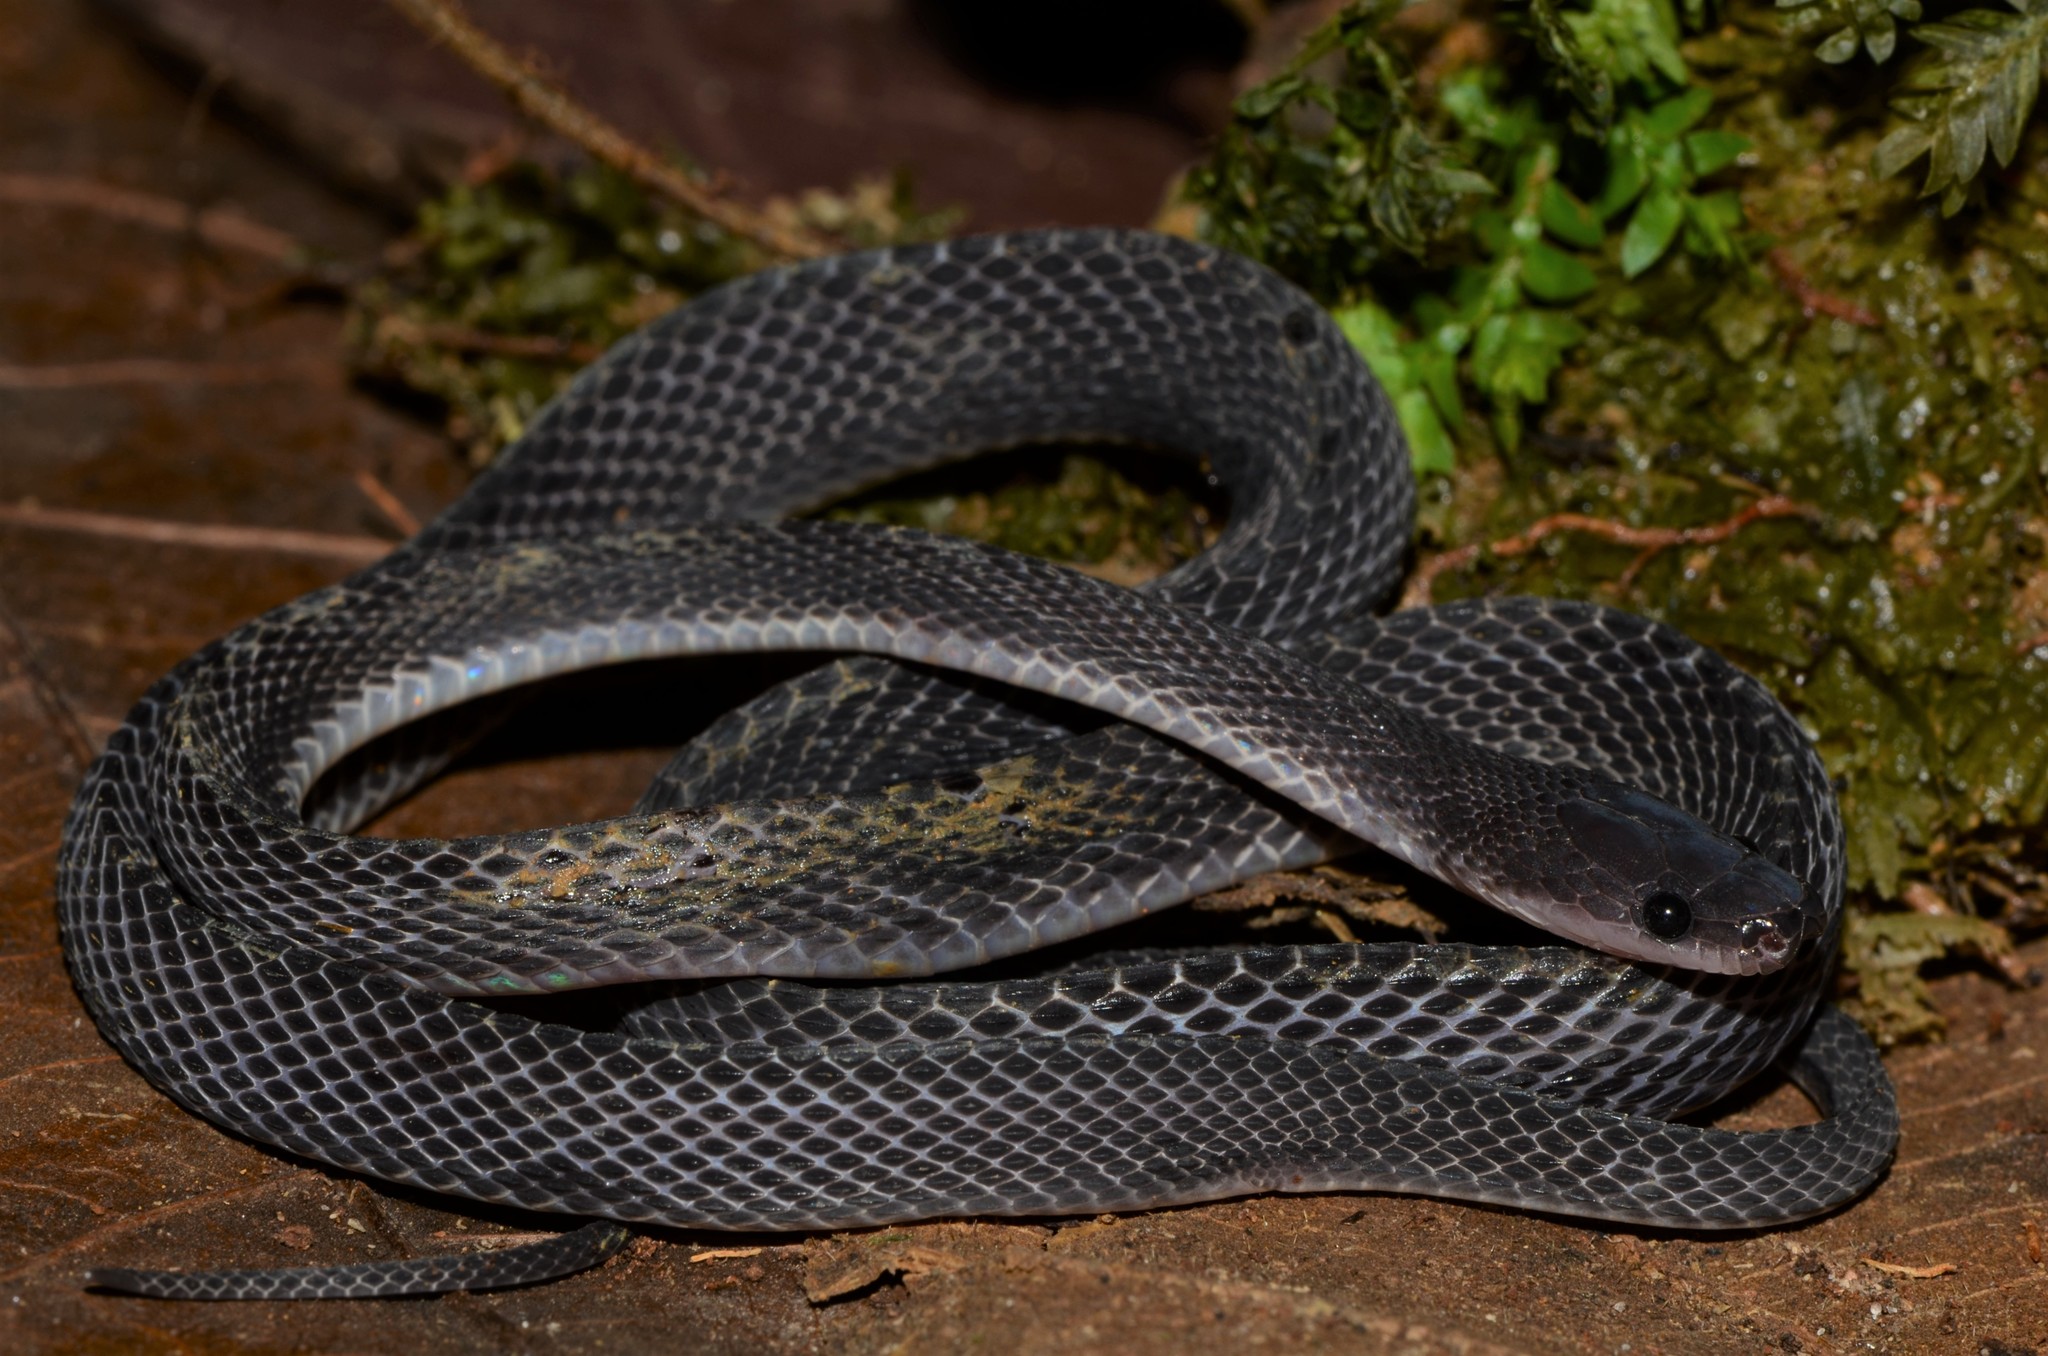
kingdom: Animalia
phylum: Chordata
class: Squamata
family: Lamprophiidae
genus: Gonionotophis
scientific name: Gonionotophis brussauxi
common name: Mocquard's african ground snake
